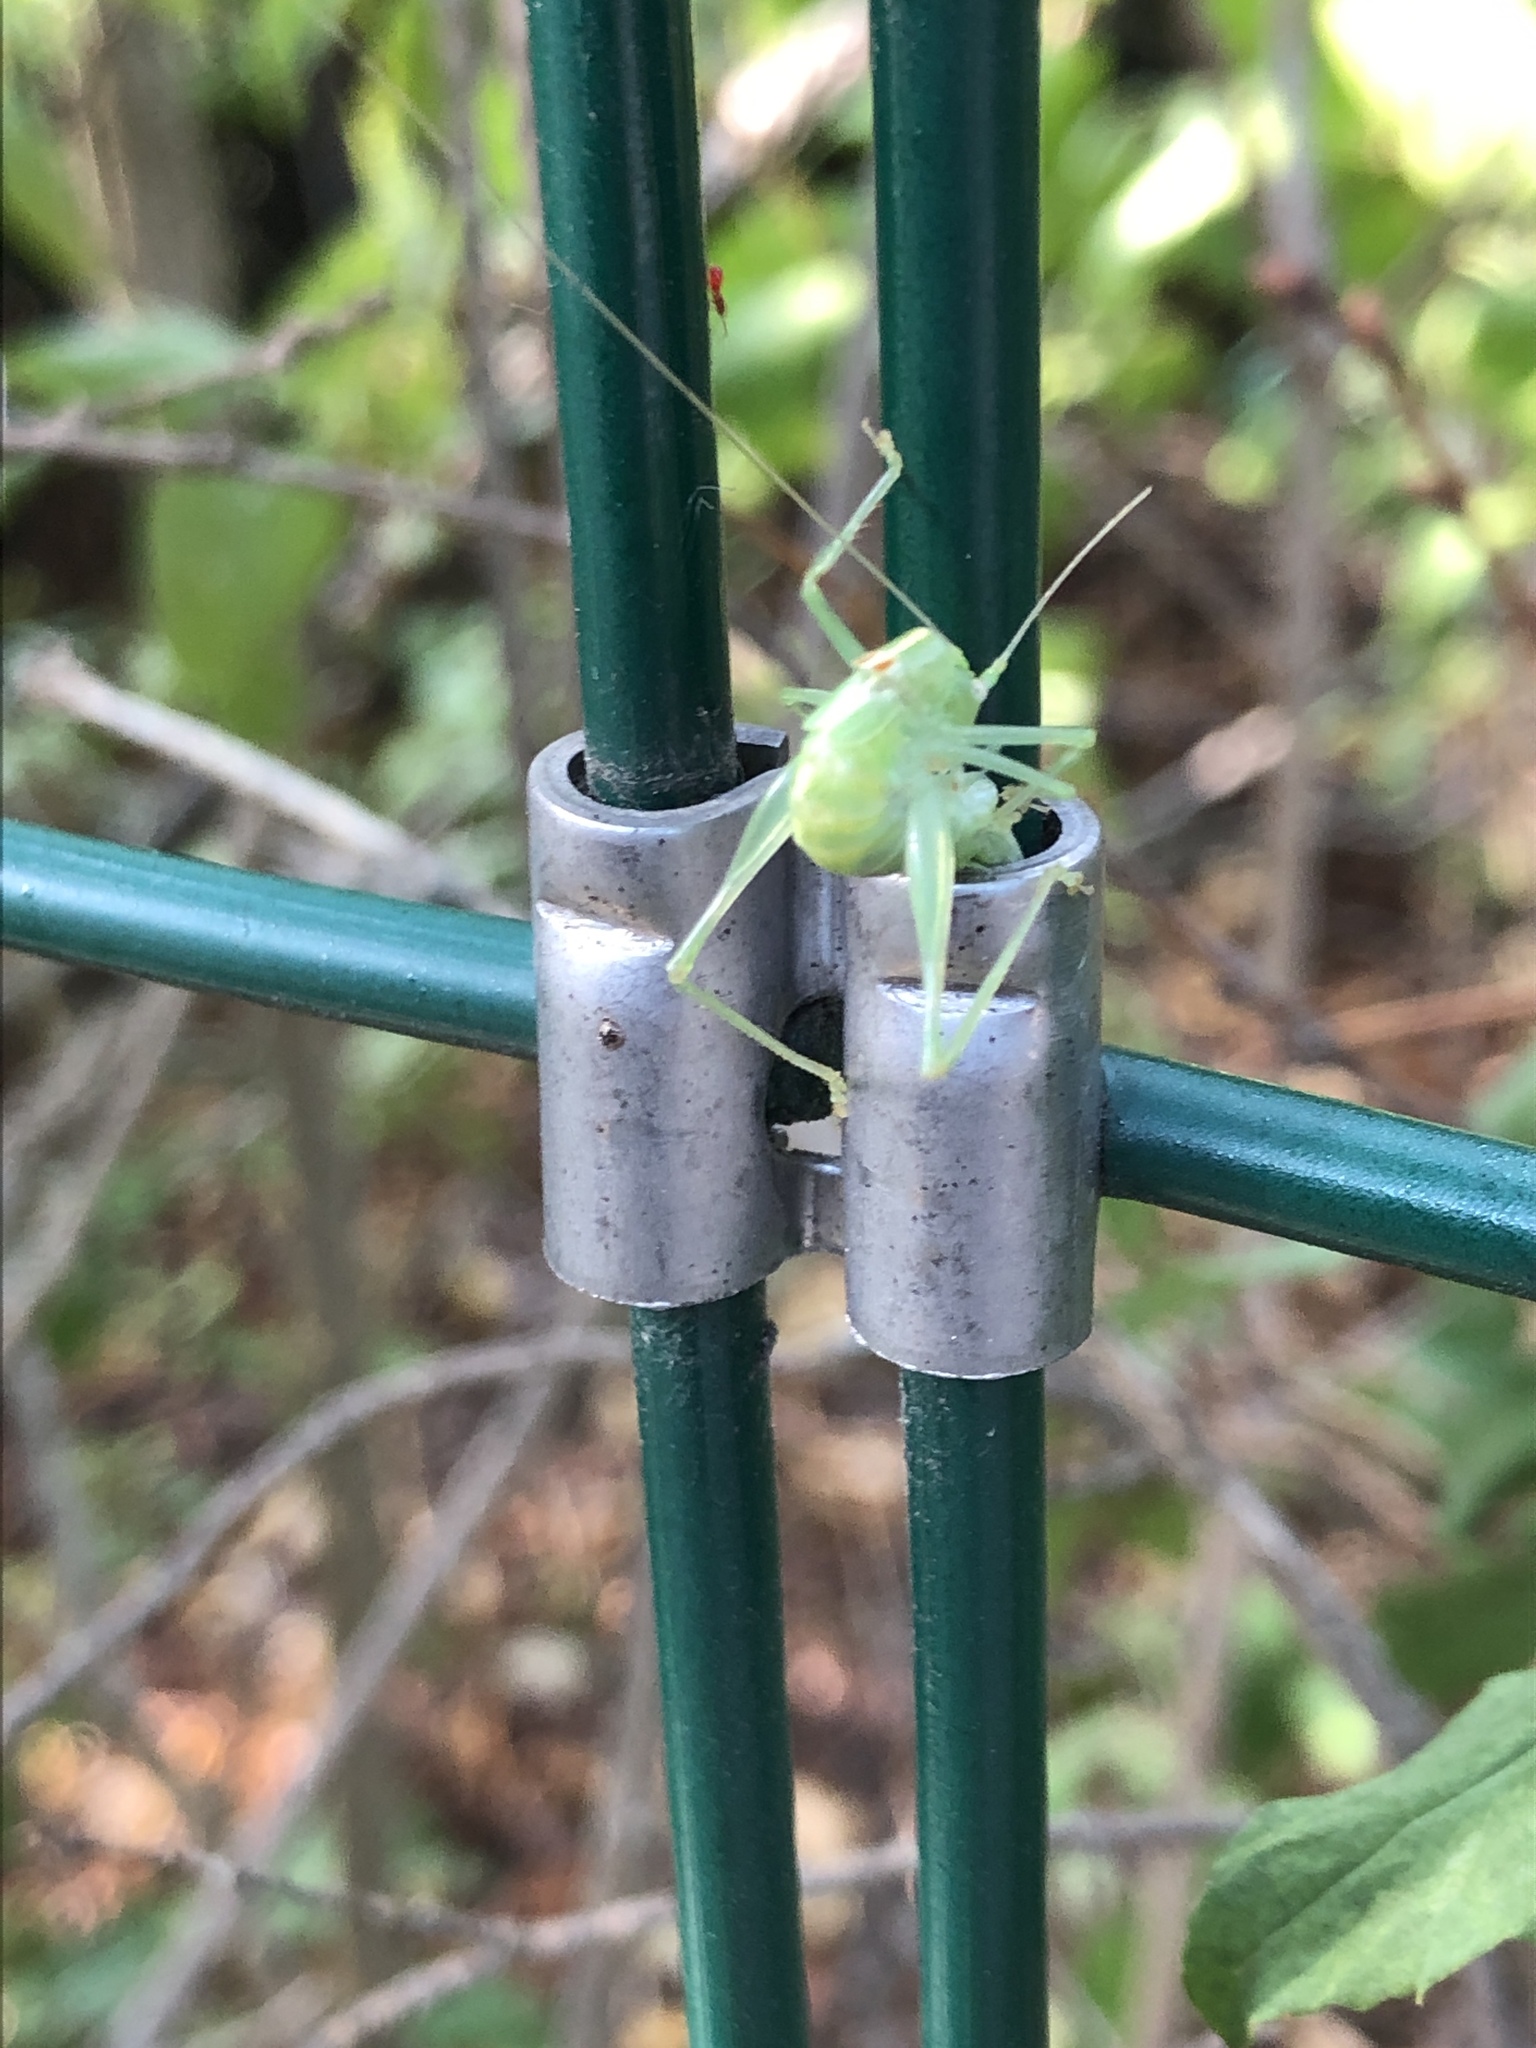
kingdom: Animalia
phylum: Arthropoda
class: Insecta
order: Orthoptera
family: Tettigoniidae
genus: Meconema
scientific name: Meconema meridionale
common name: Southern oak bush-cricket
